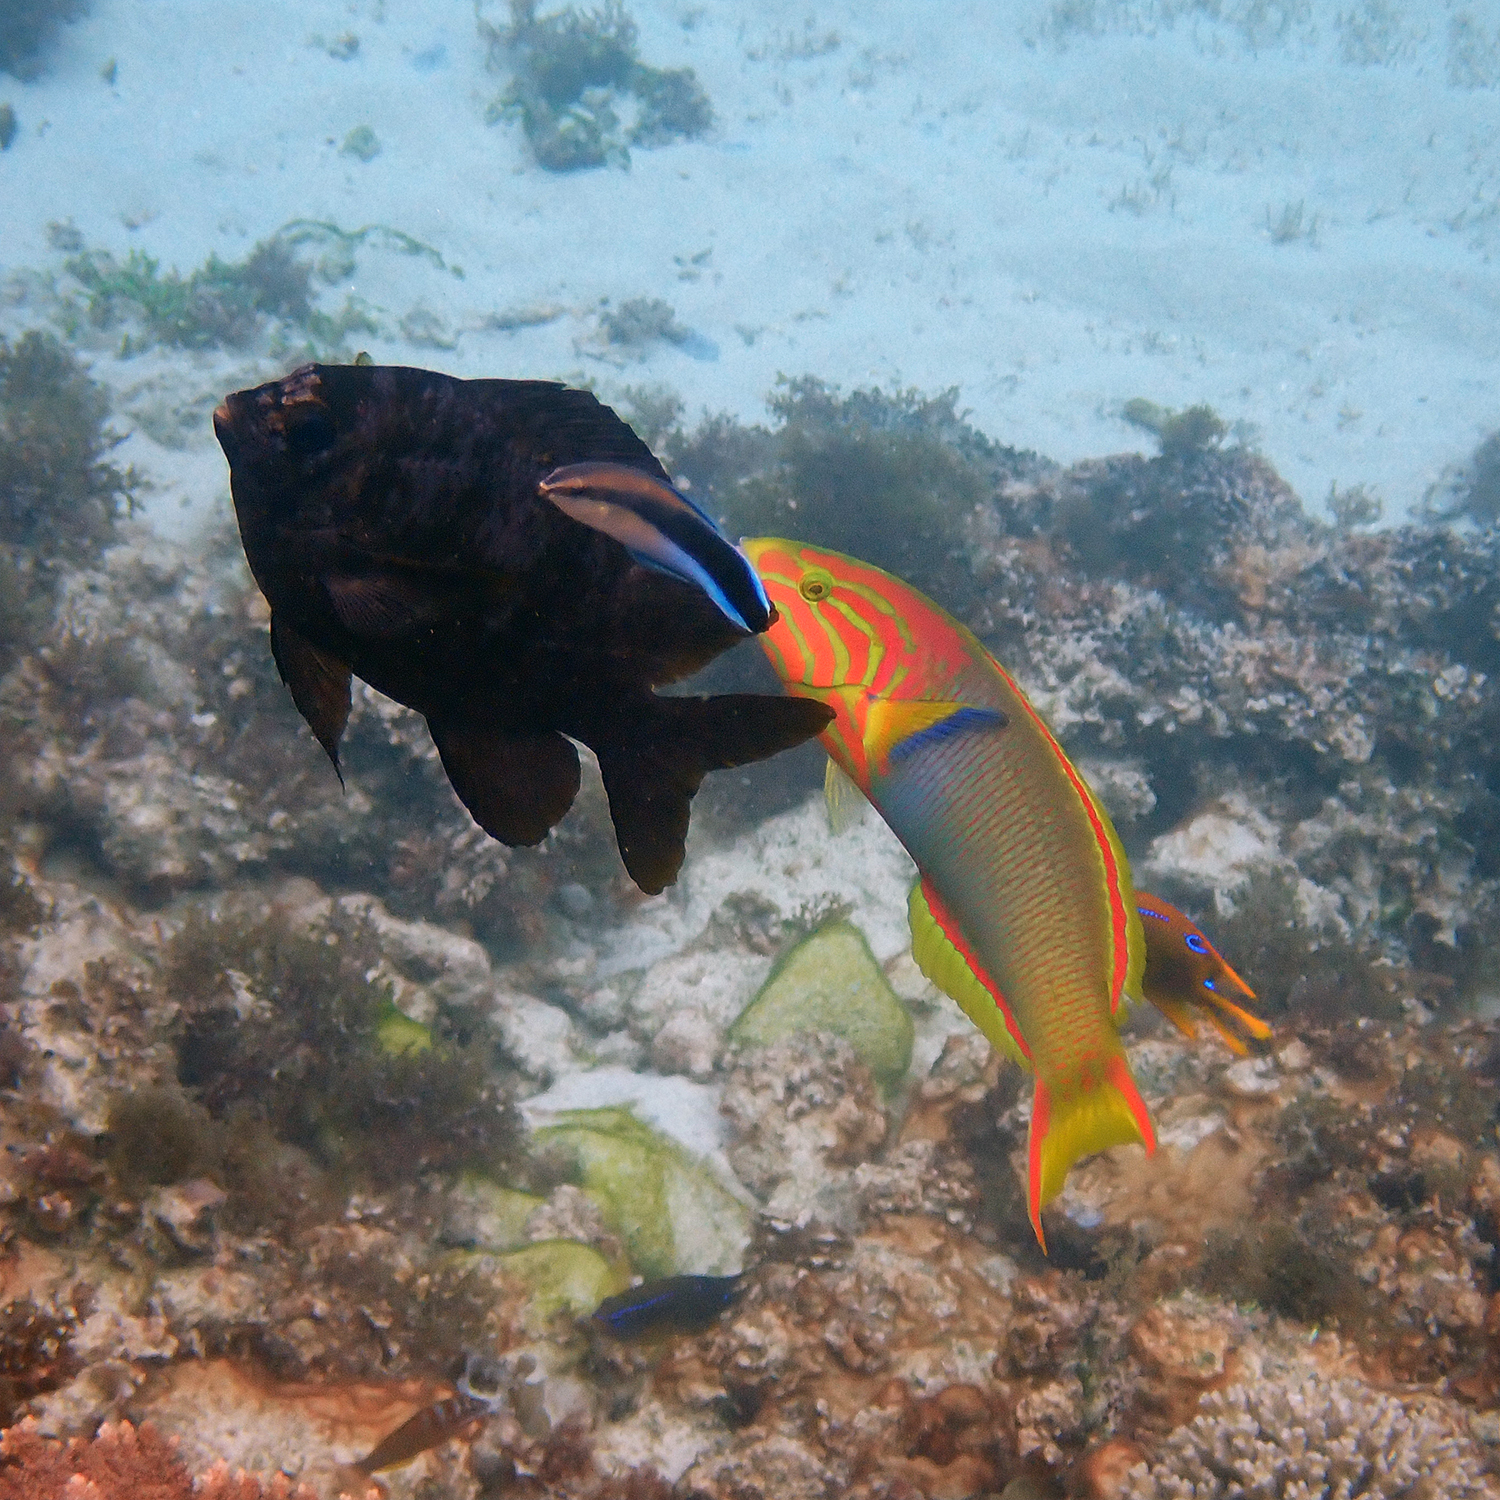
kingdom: Animalia
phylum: Chordata
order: Perciformes
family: Labridae
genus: Labroides
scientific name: Labroides dimidiatus
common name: Blue diesel wrasse
